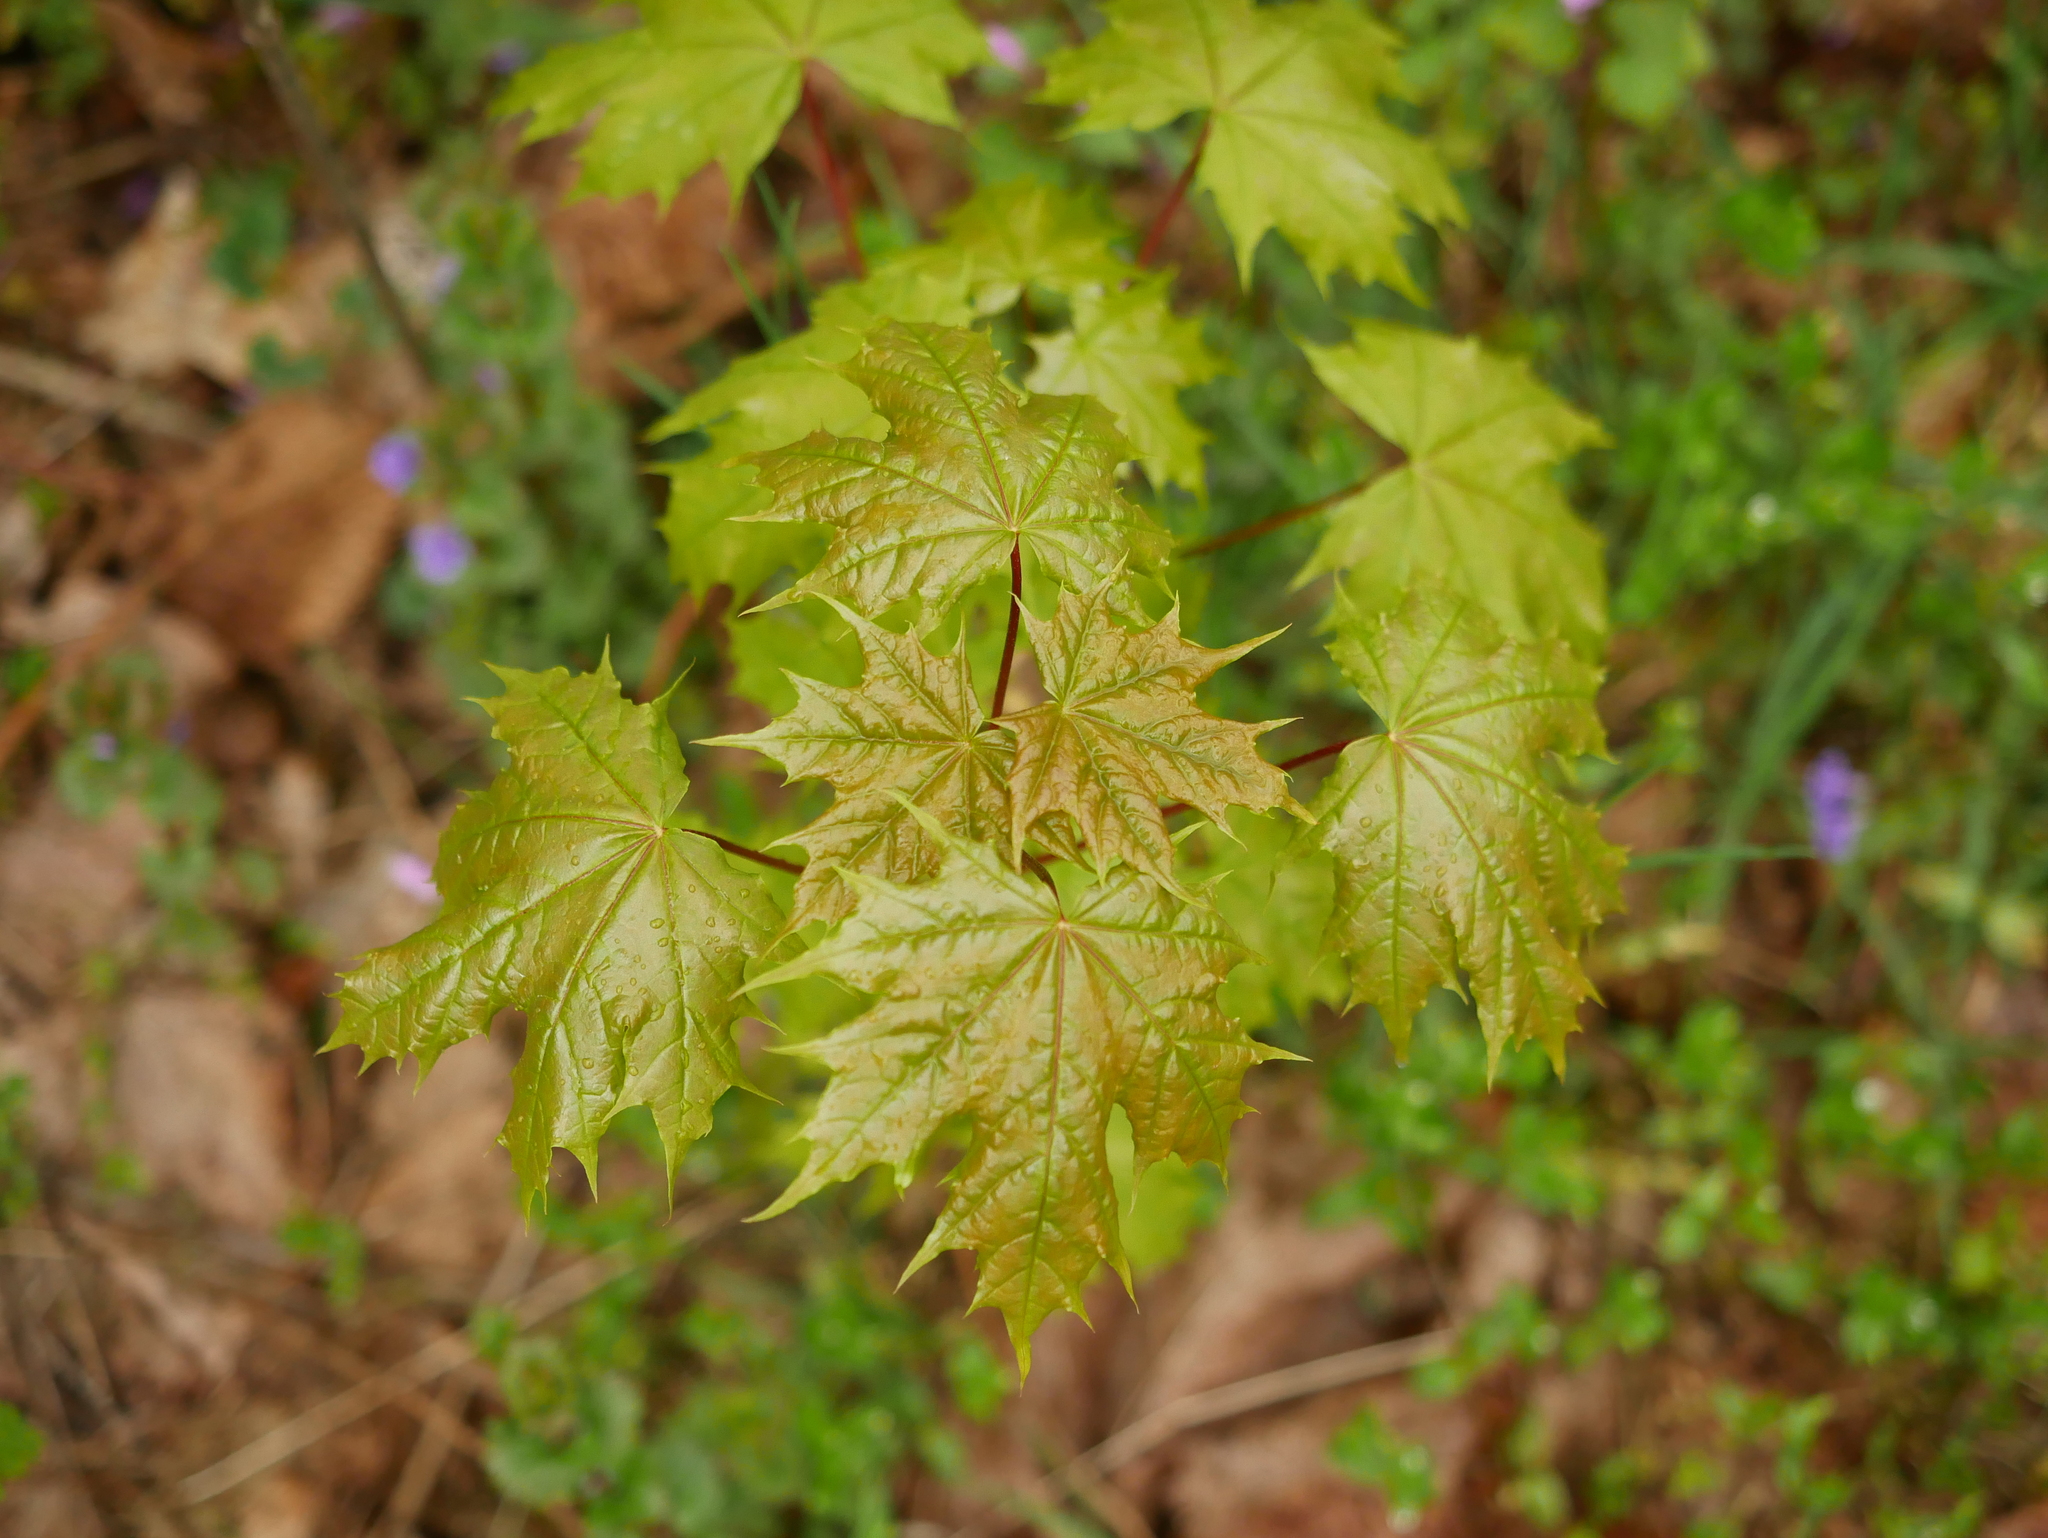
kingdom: Plantae
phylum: Tracheophyta
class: Magnoliopsida
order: Sapindales
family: Sapindaceae
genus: Acer
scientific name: Acer platanoides
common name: Norway maple
